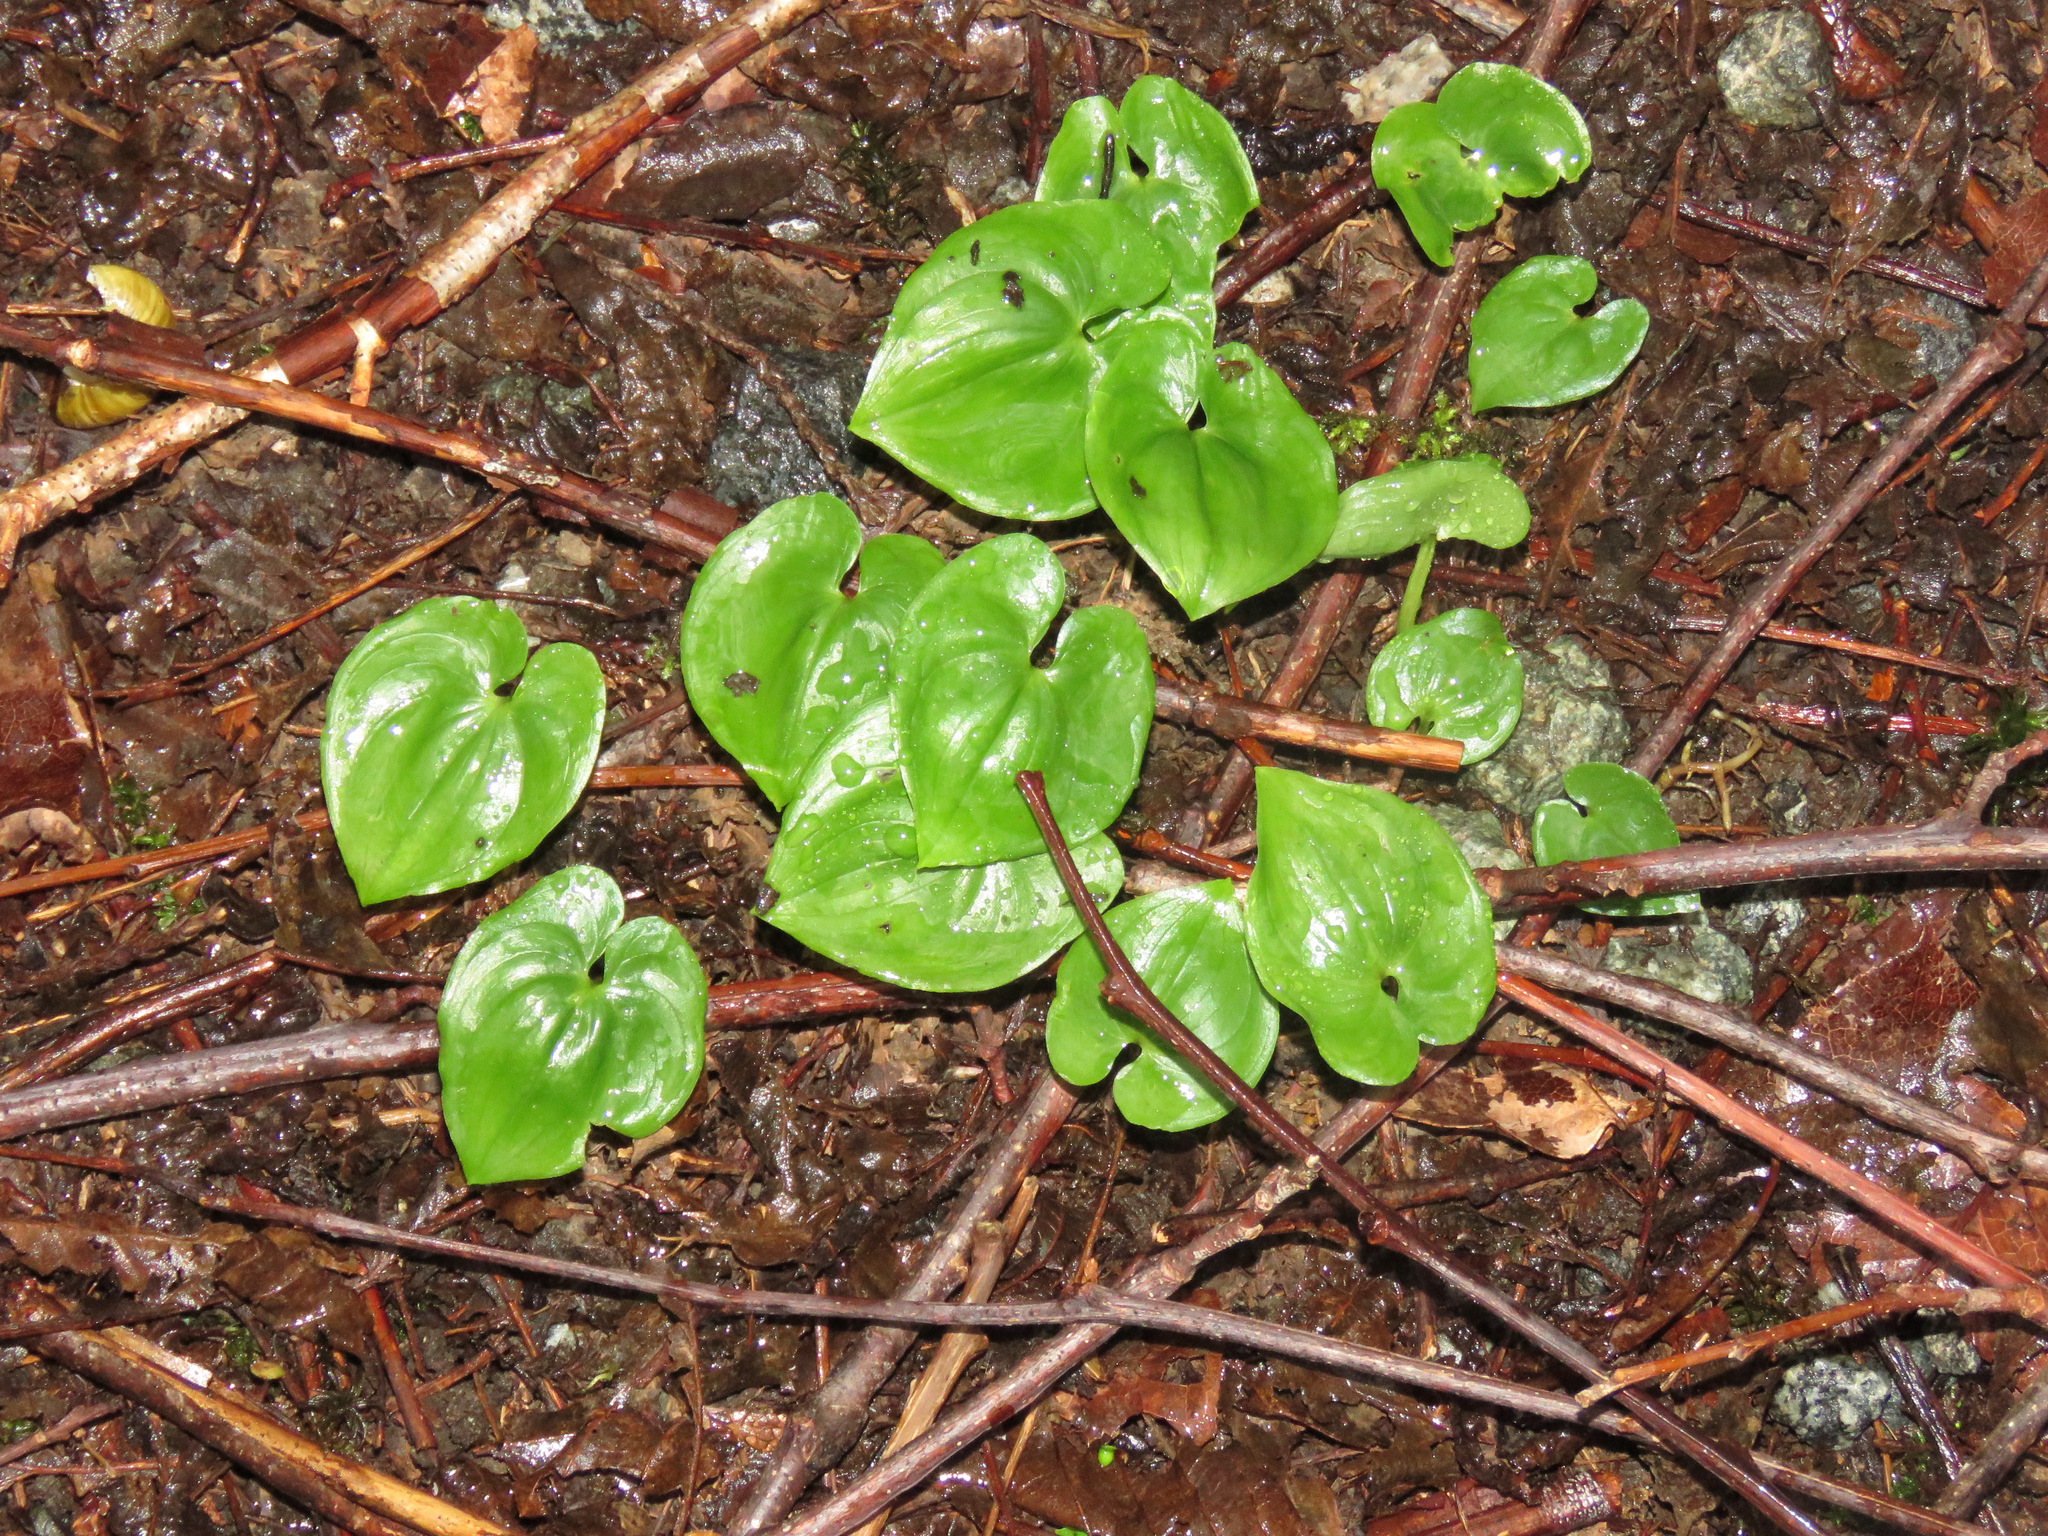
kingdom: Plantae
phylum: Tracheophyta
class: Liliopsida
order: Asparagales
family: Asparagaceae
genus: Maianthemum
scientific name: Maianthemum dilatatum
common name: False lily-of-the-valley
